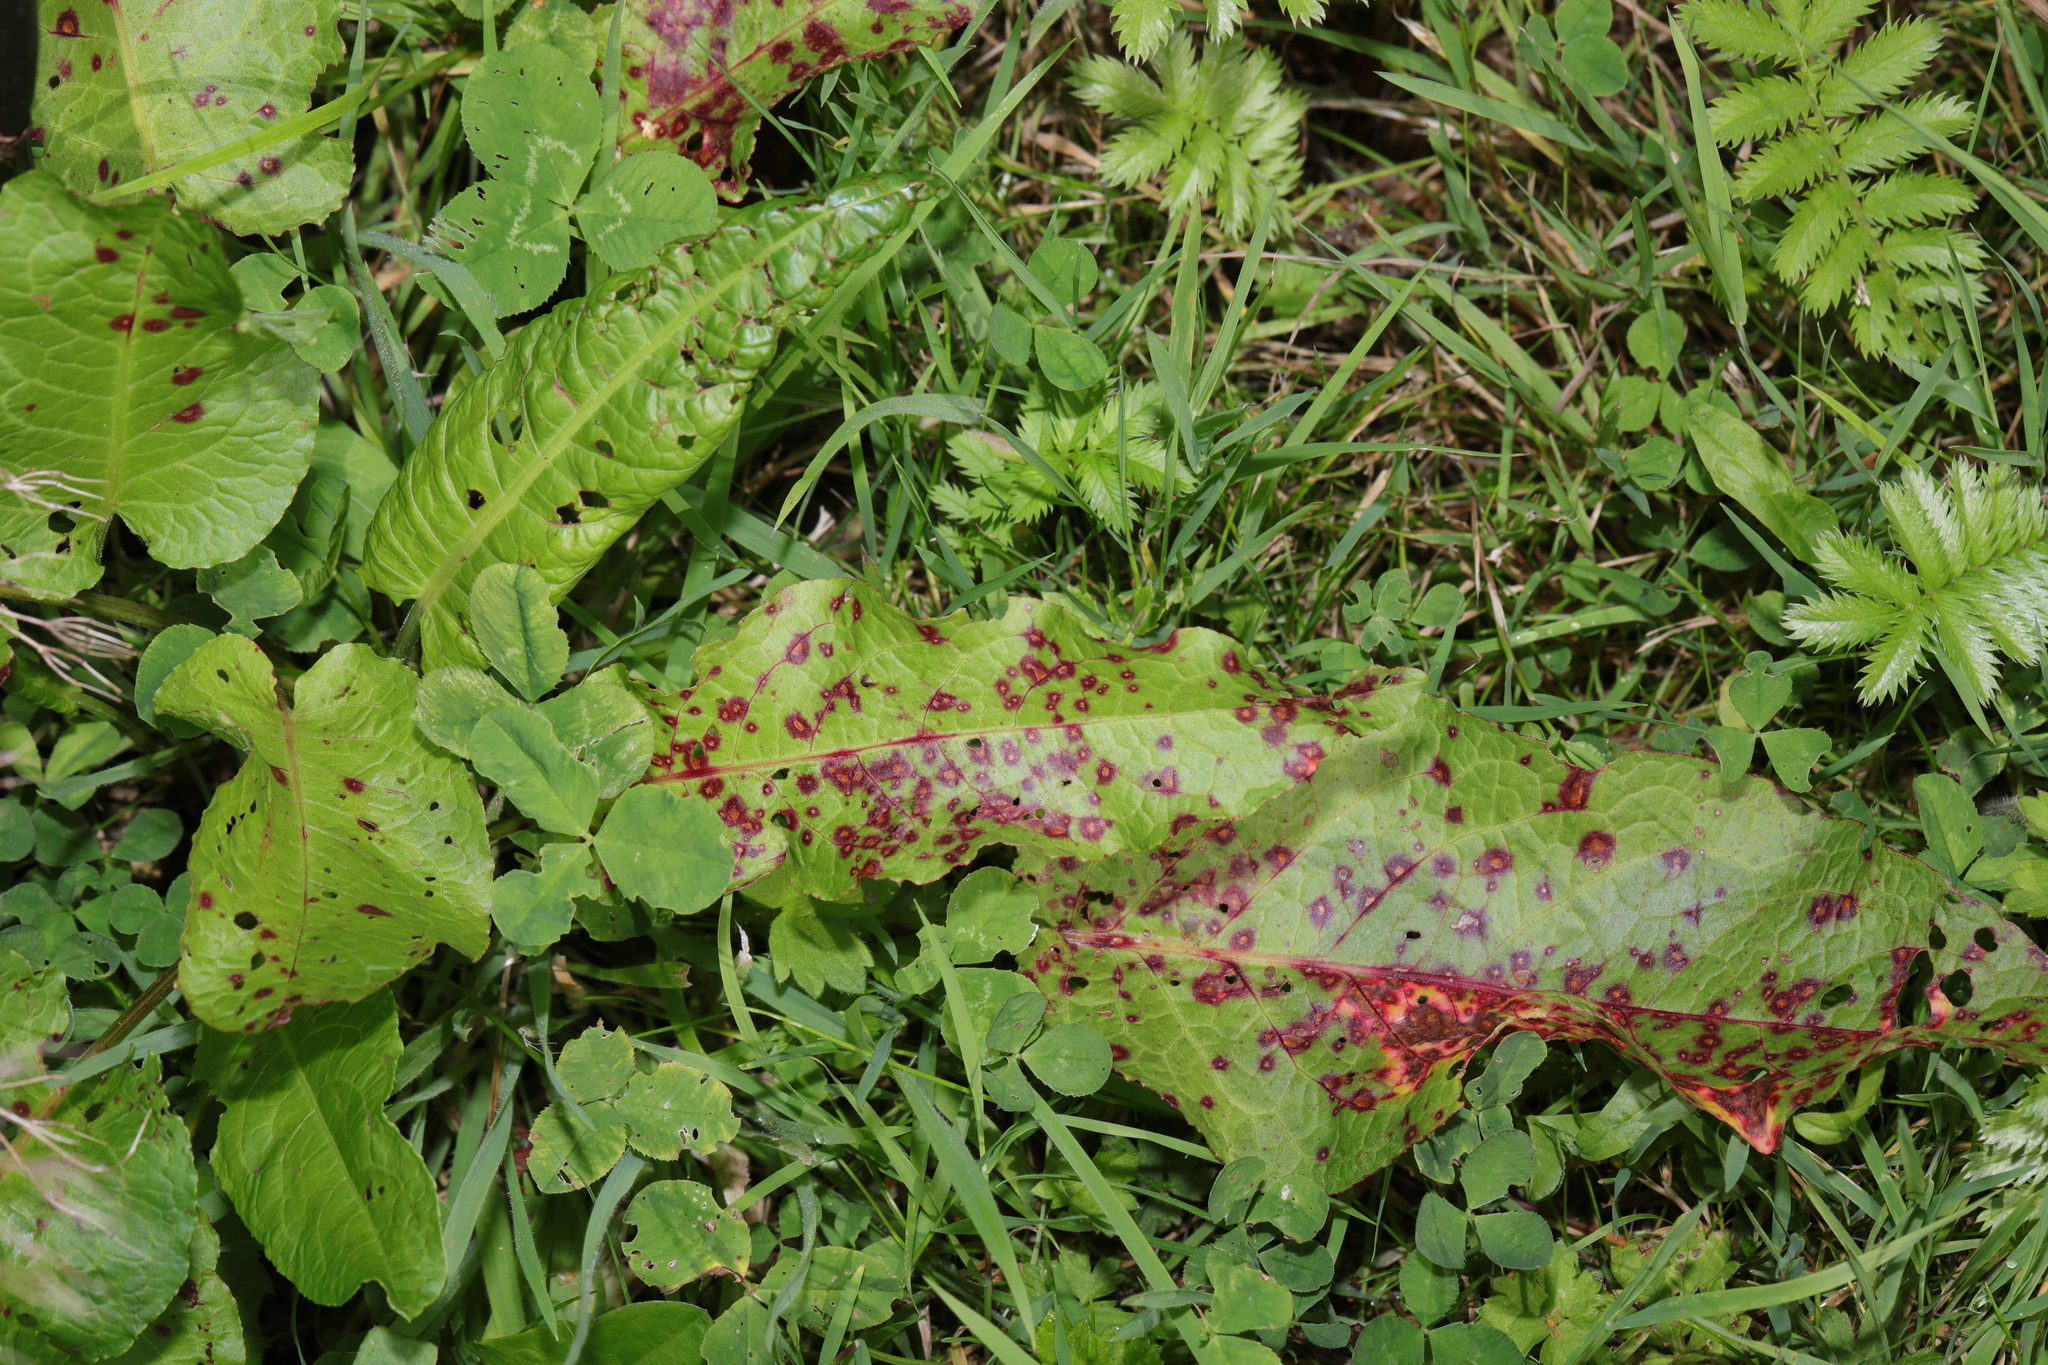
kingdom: Plantae
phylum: Tracheophyta
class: Magnoliopsida
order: Caryophyllales
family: Polygonaceae
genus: Rumex
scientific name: Rumex obtusifolius
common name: Bitter dock
